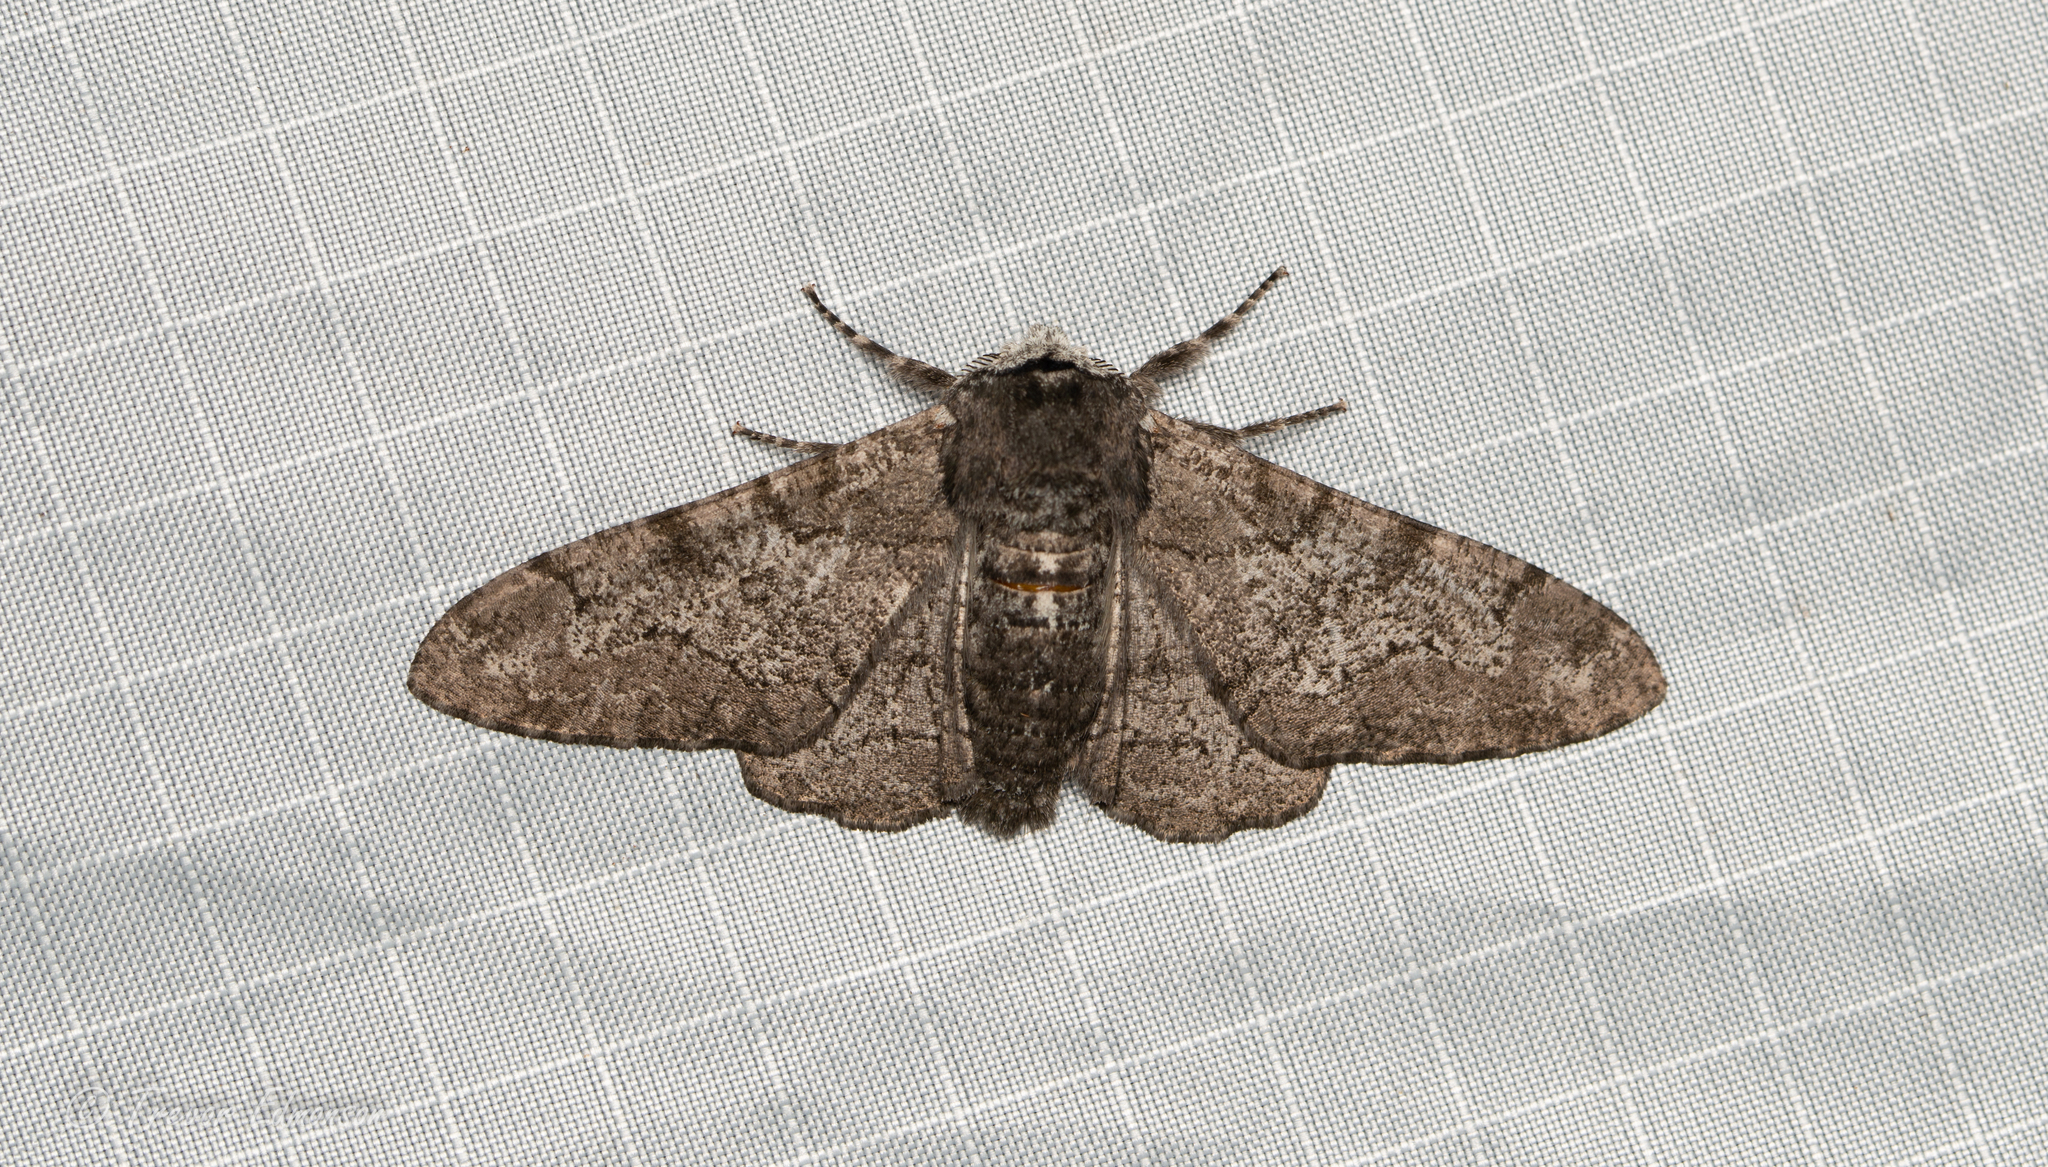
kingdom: Animalia
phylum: Arthropoda
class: Insecta
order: Lepidoptera
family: Geometridae
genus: Biston
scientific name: Biston betularia
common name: Peppered moth
